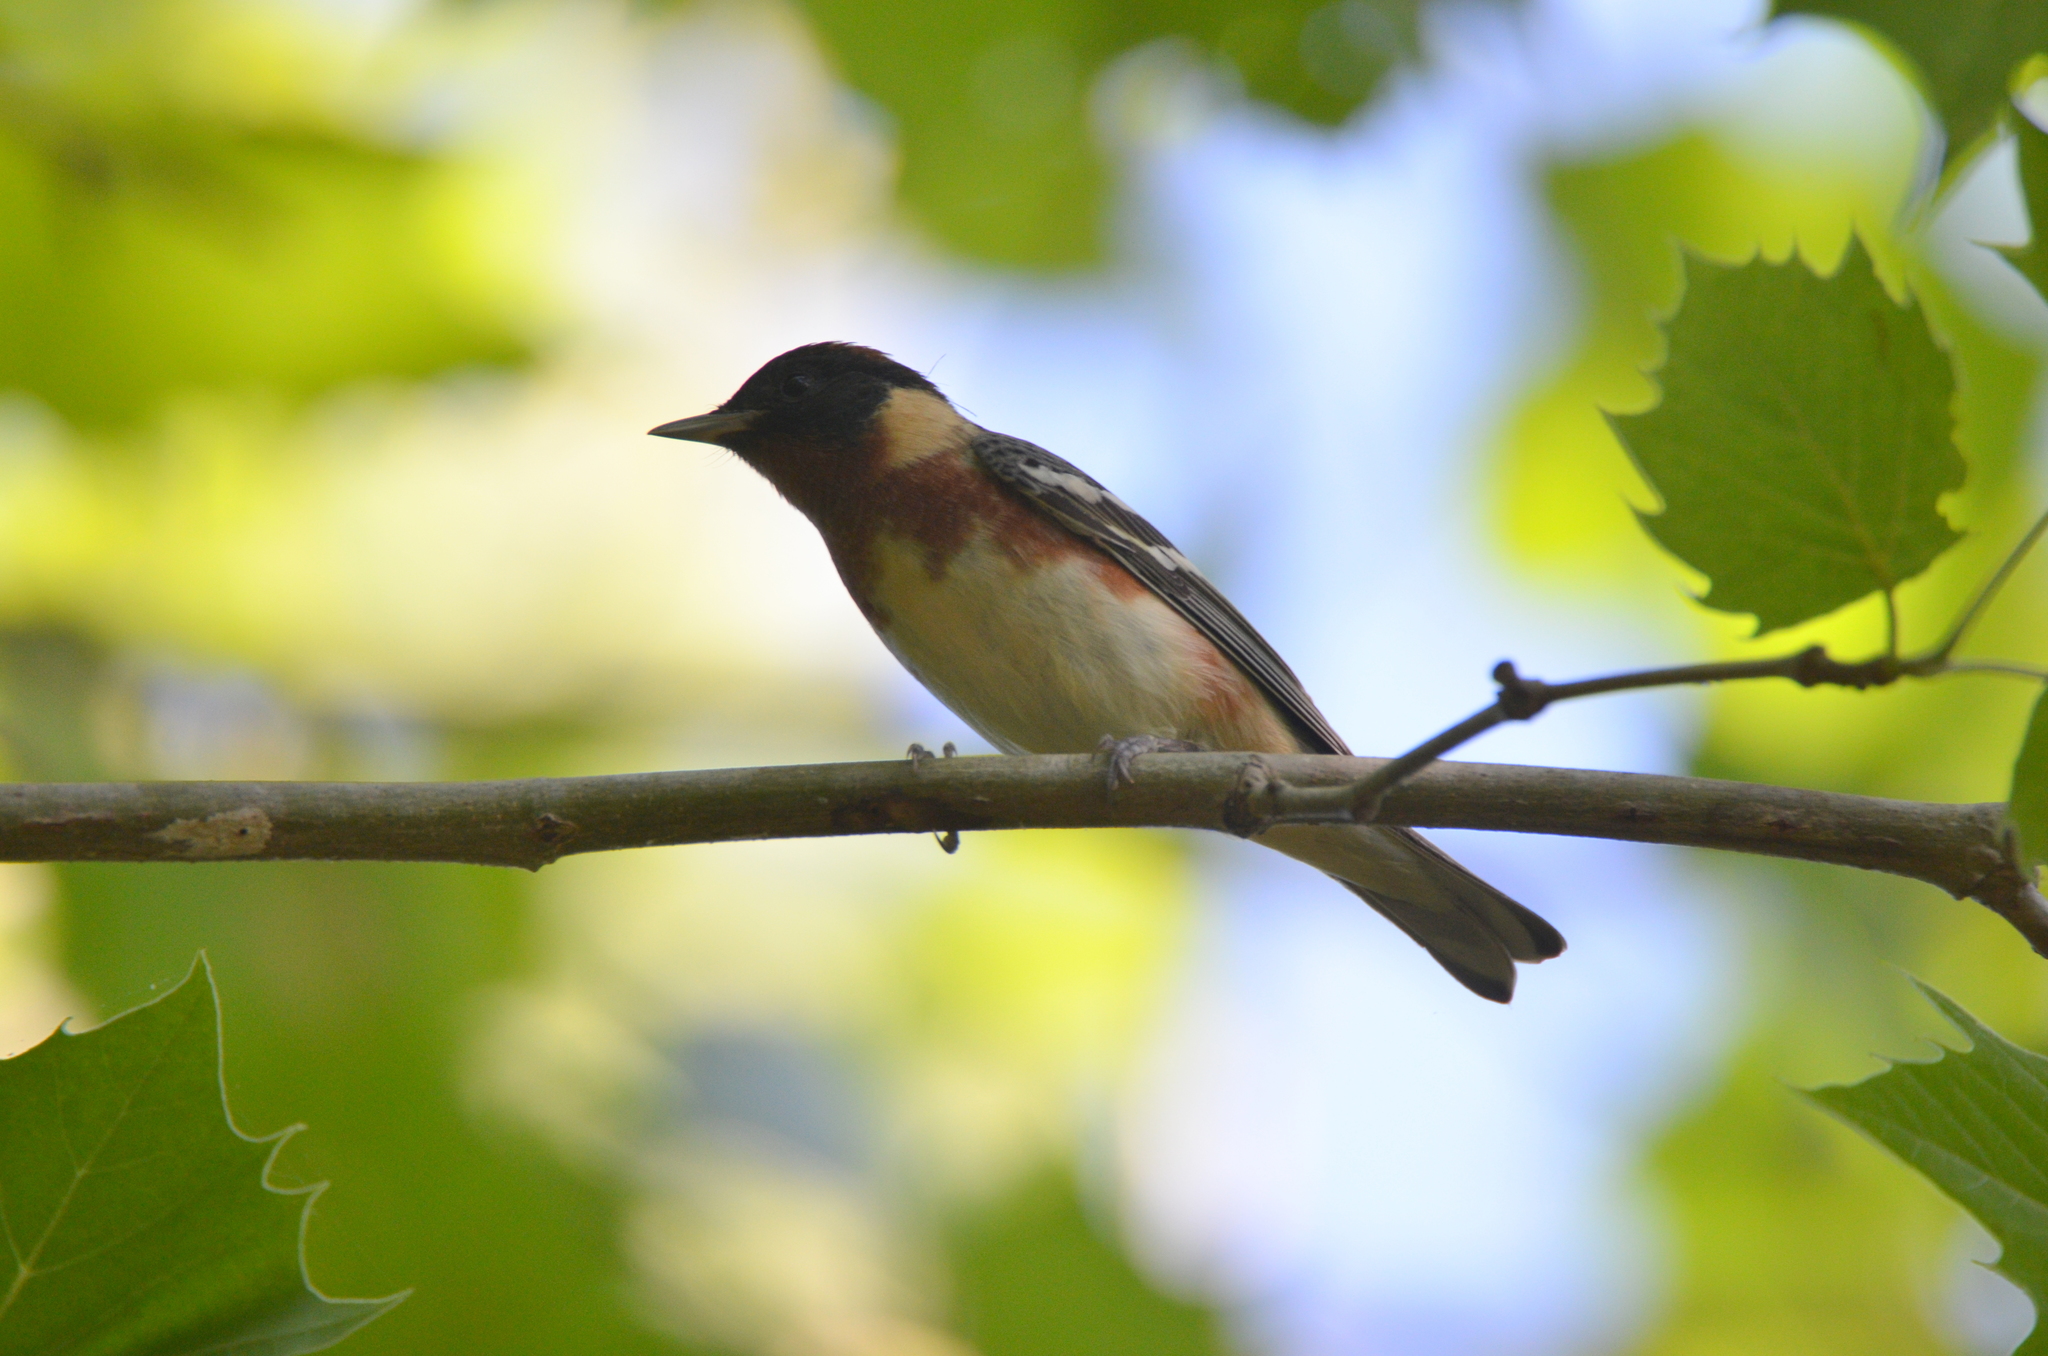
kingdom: Animalia
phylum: Chordata
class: Aves
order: Passeriformes
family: Parulidae
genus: Setophaga
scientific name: Setophaga castanea
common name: Bay-breasted warbler
